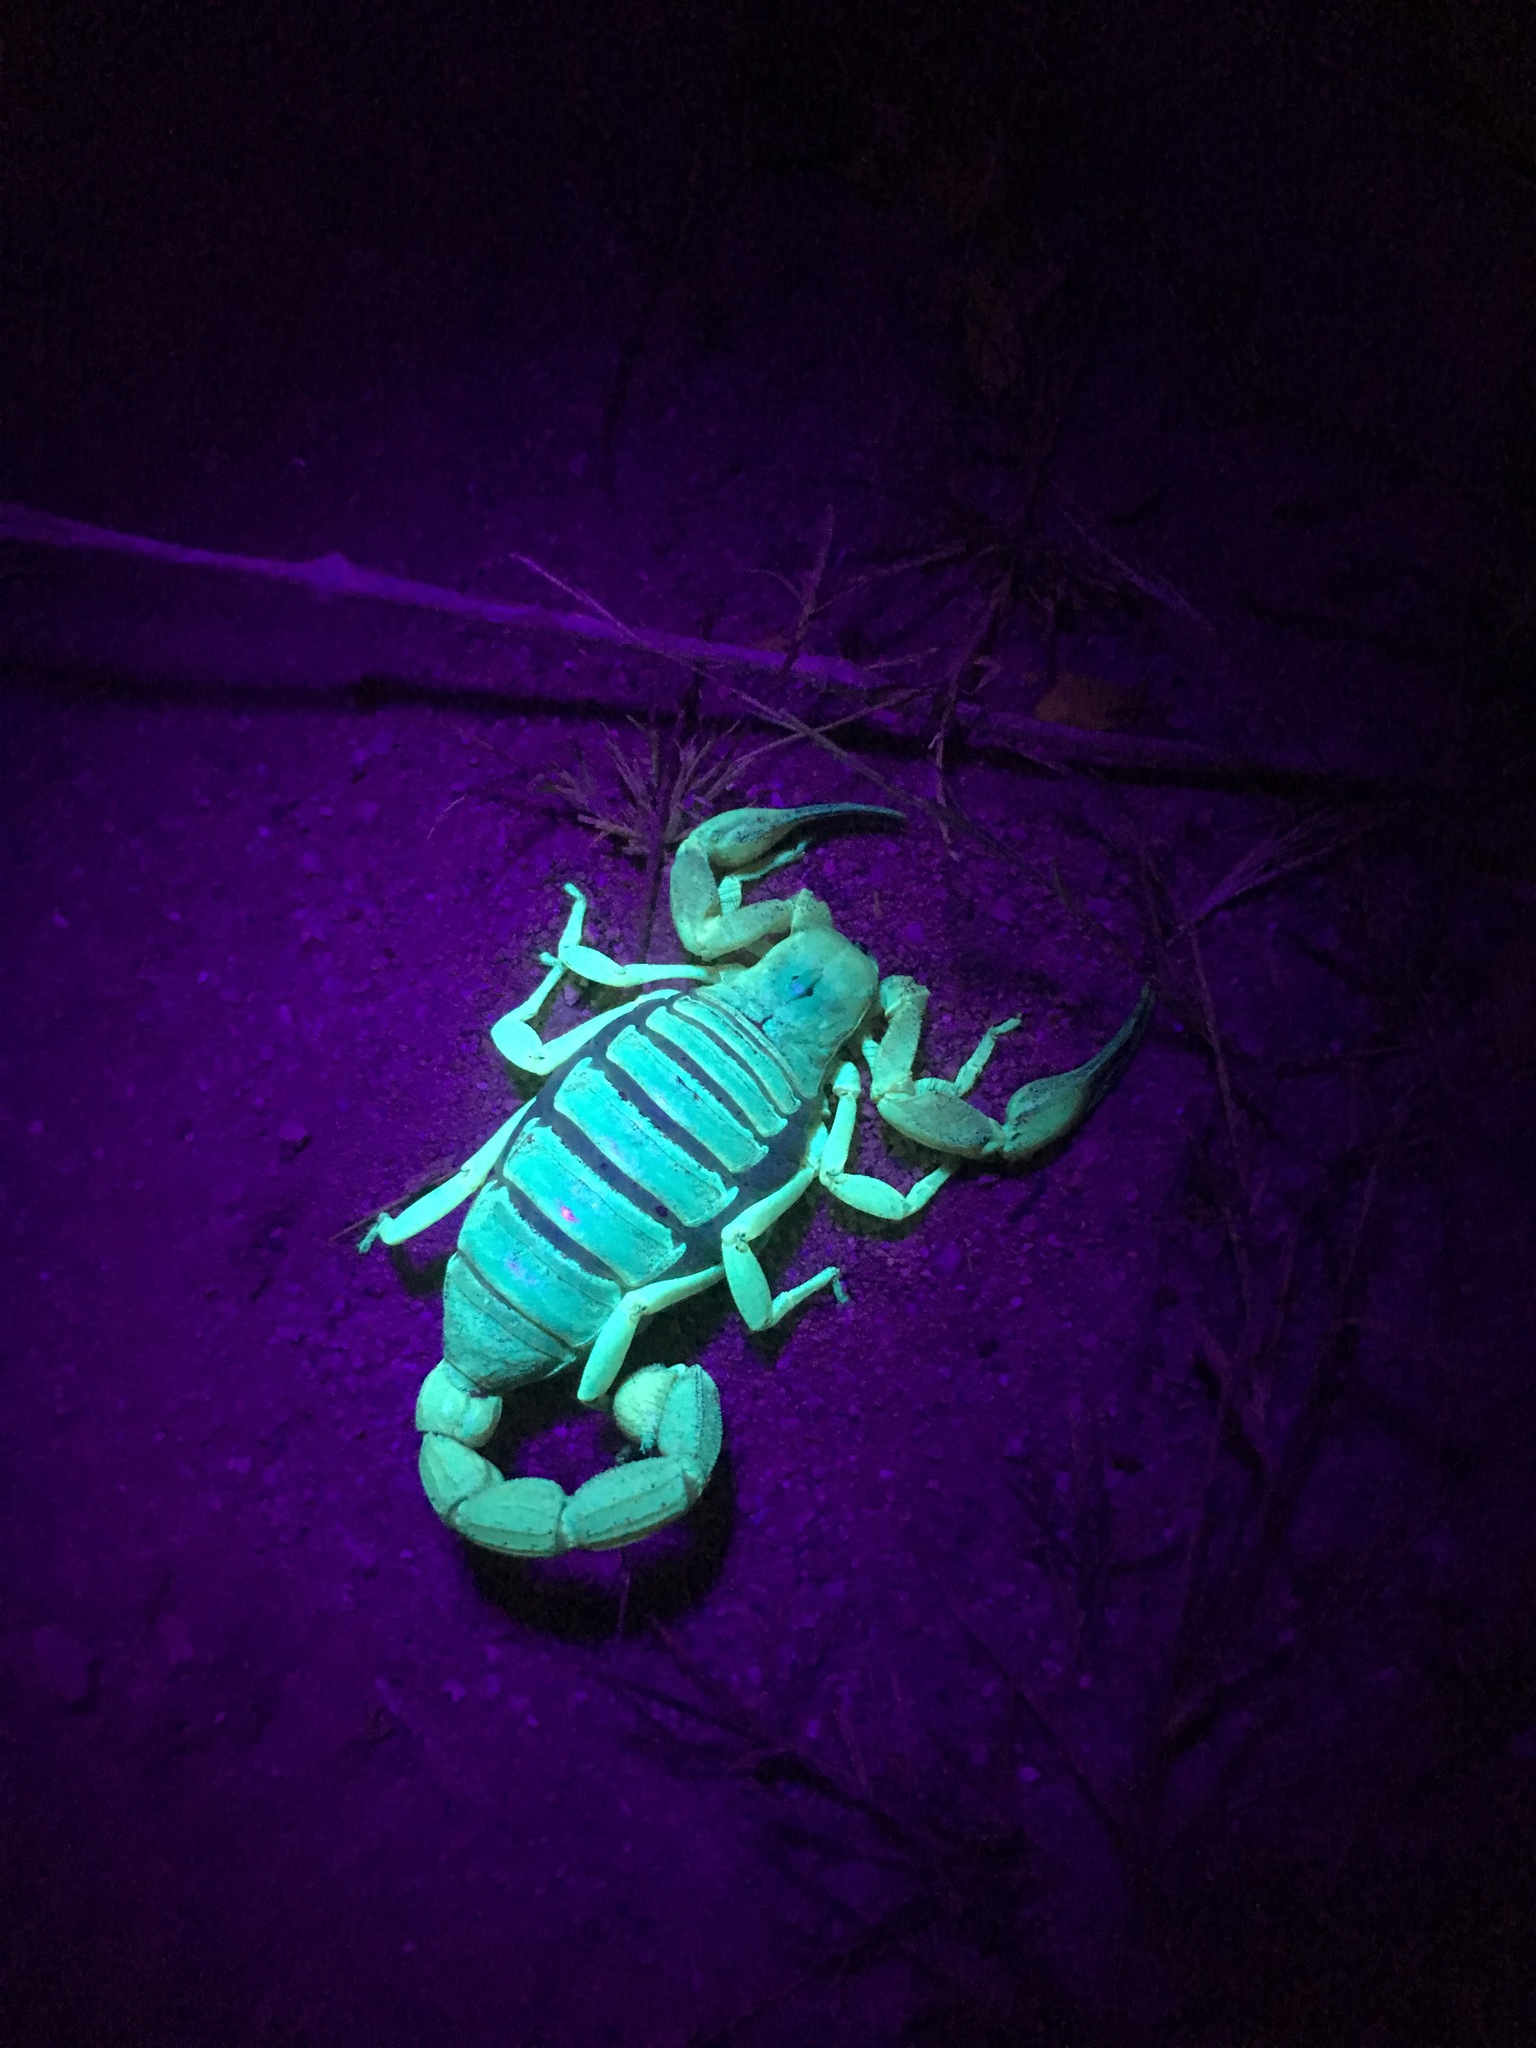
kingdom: Animalia
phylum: Arthropoda
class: Arachnida
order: Scorpiones
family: Hadruridae
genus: Hadrurus
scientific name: Hadrurus hirsutus
